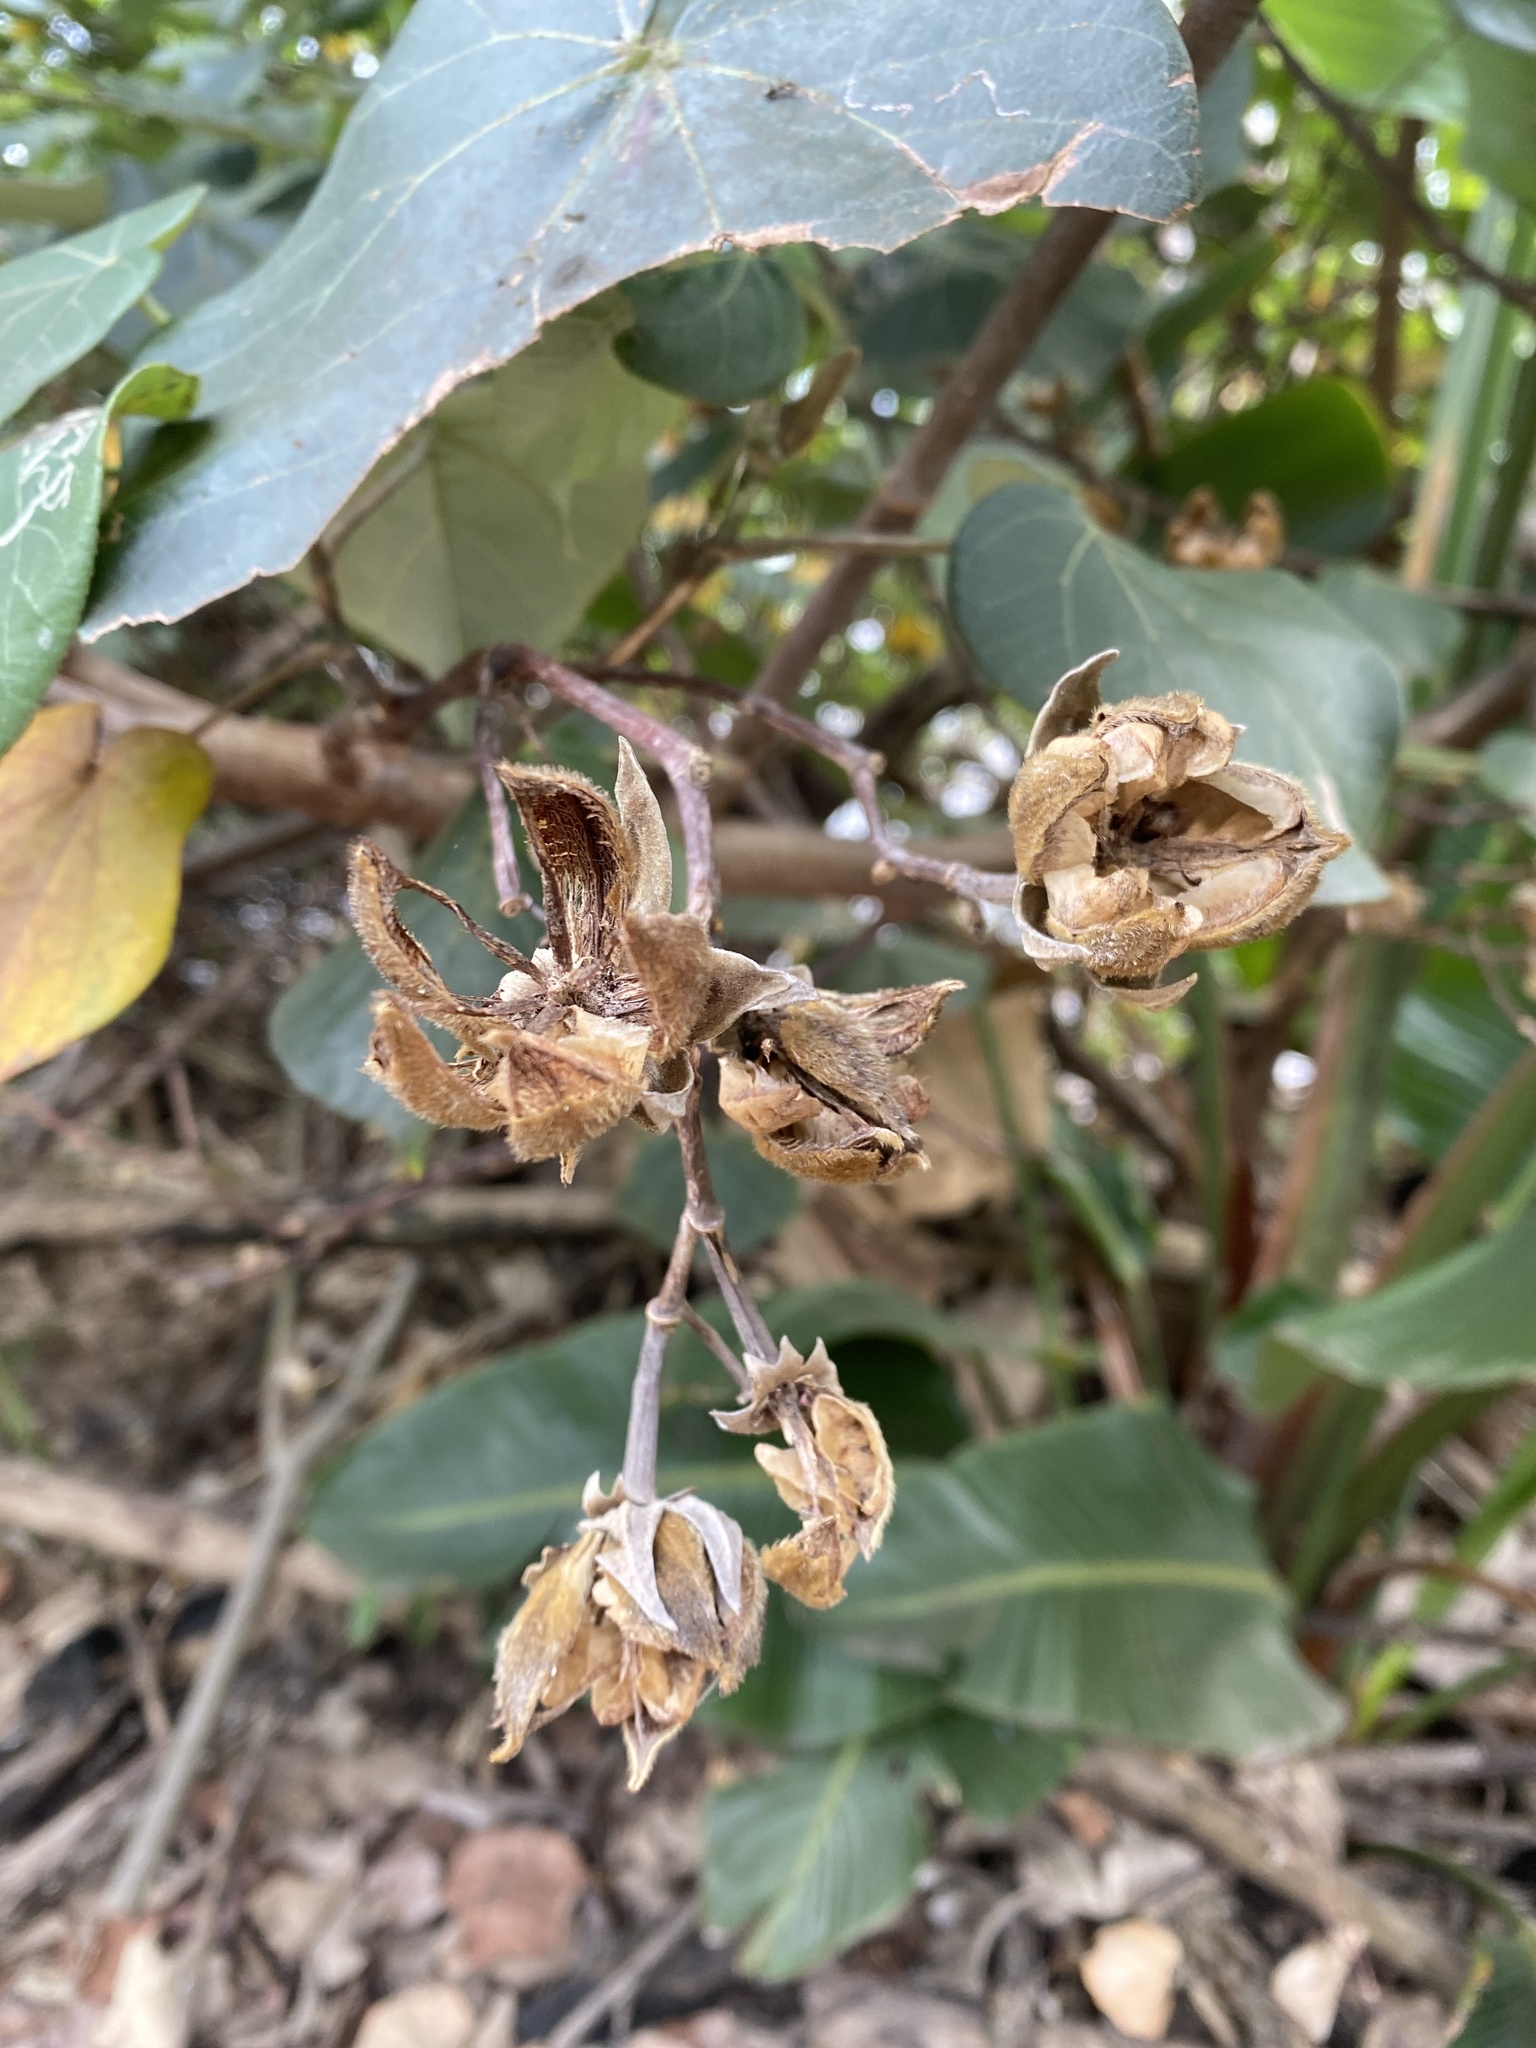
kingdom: Plantae
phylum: Tracheophyta
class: Magnoliopsida
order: Malvales
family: Malvaceae
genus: Talipariti
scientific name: Talipariti tiliaceum
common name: Sea hibiscus
